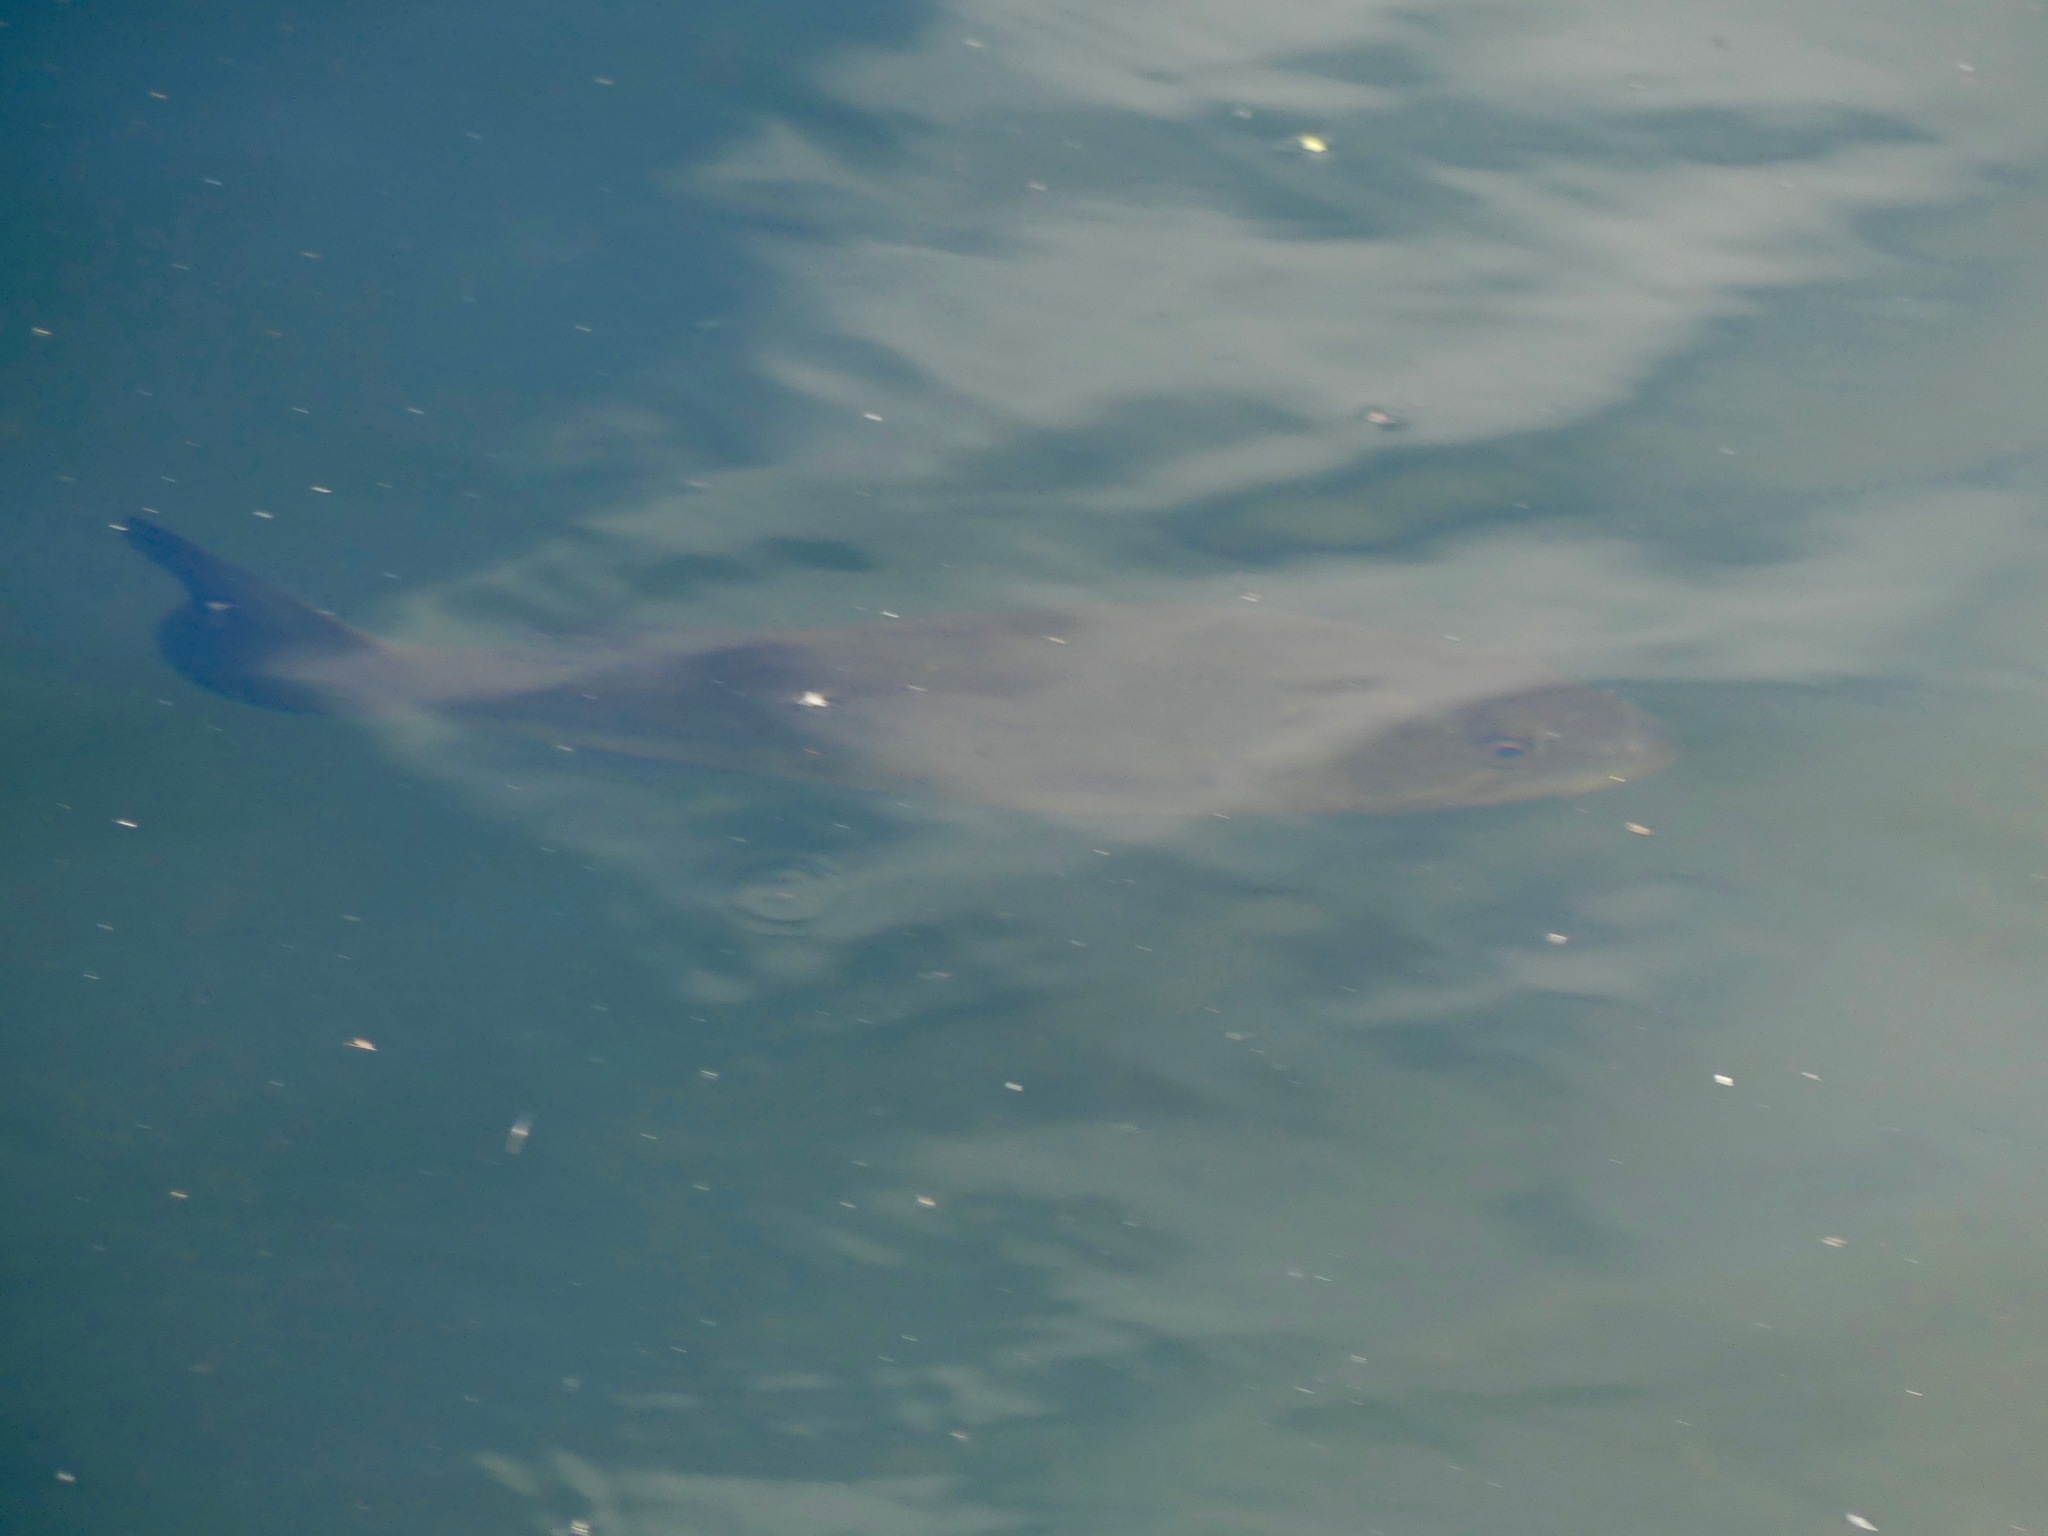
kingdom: Animalia
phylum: Chordata
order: Perciformes
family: Centrarchidae
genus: Micropterus
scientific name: Micropterus
